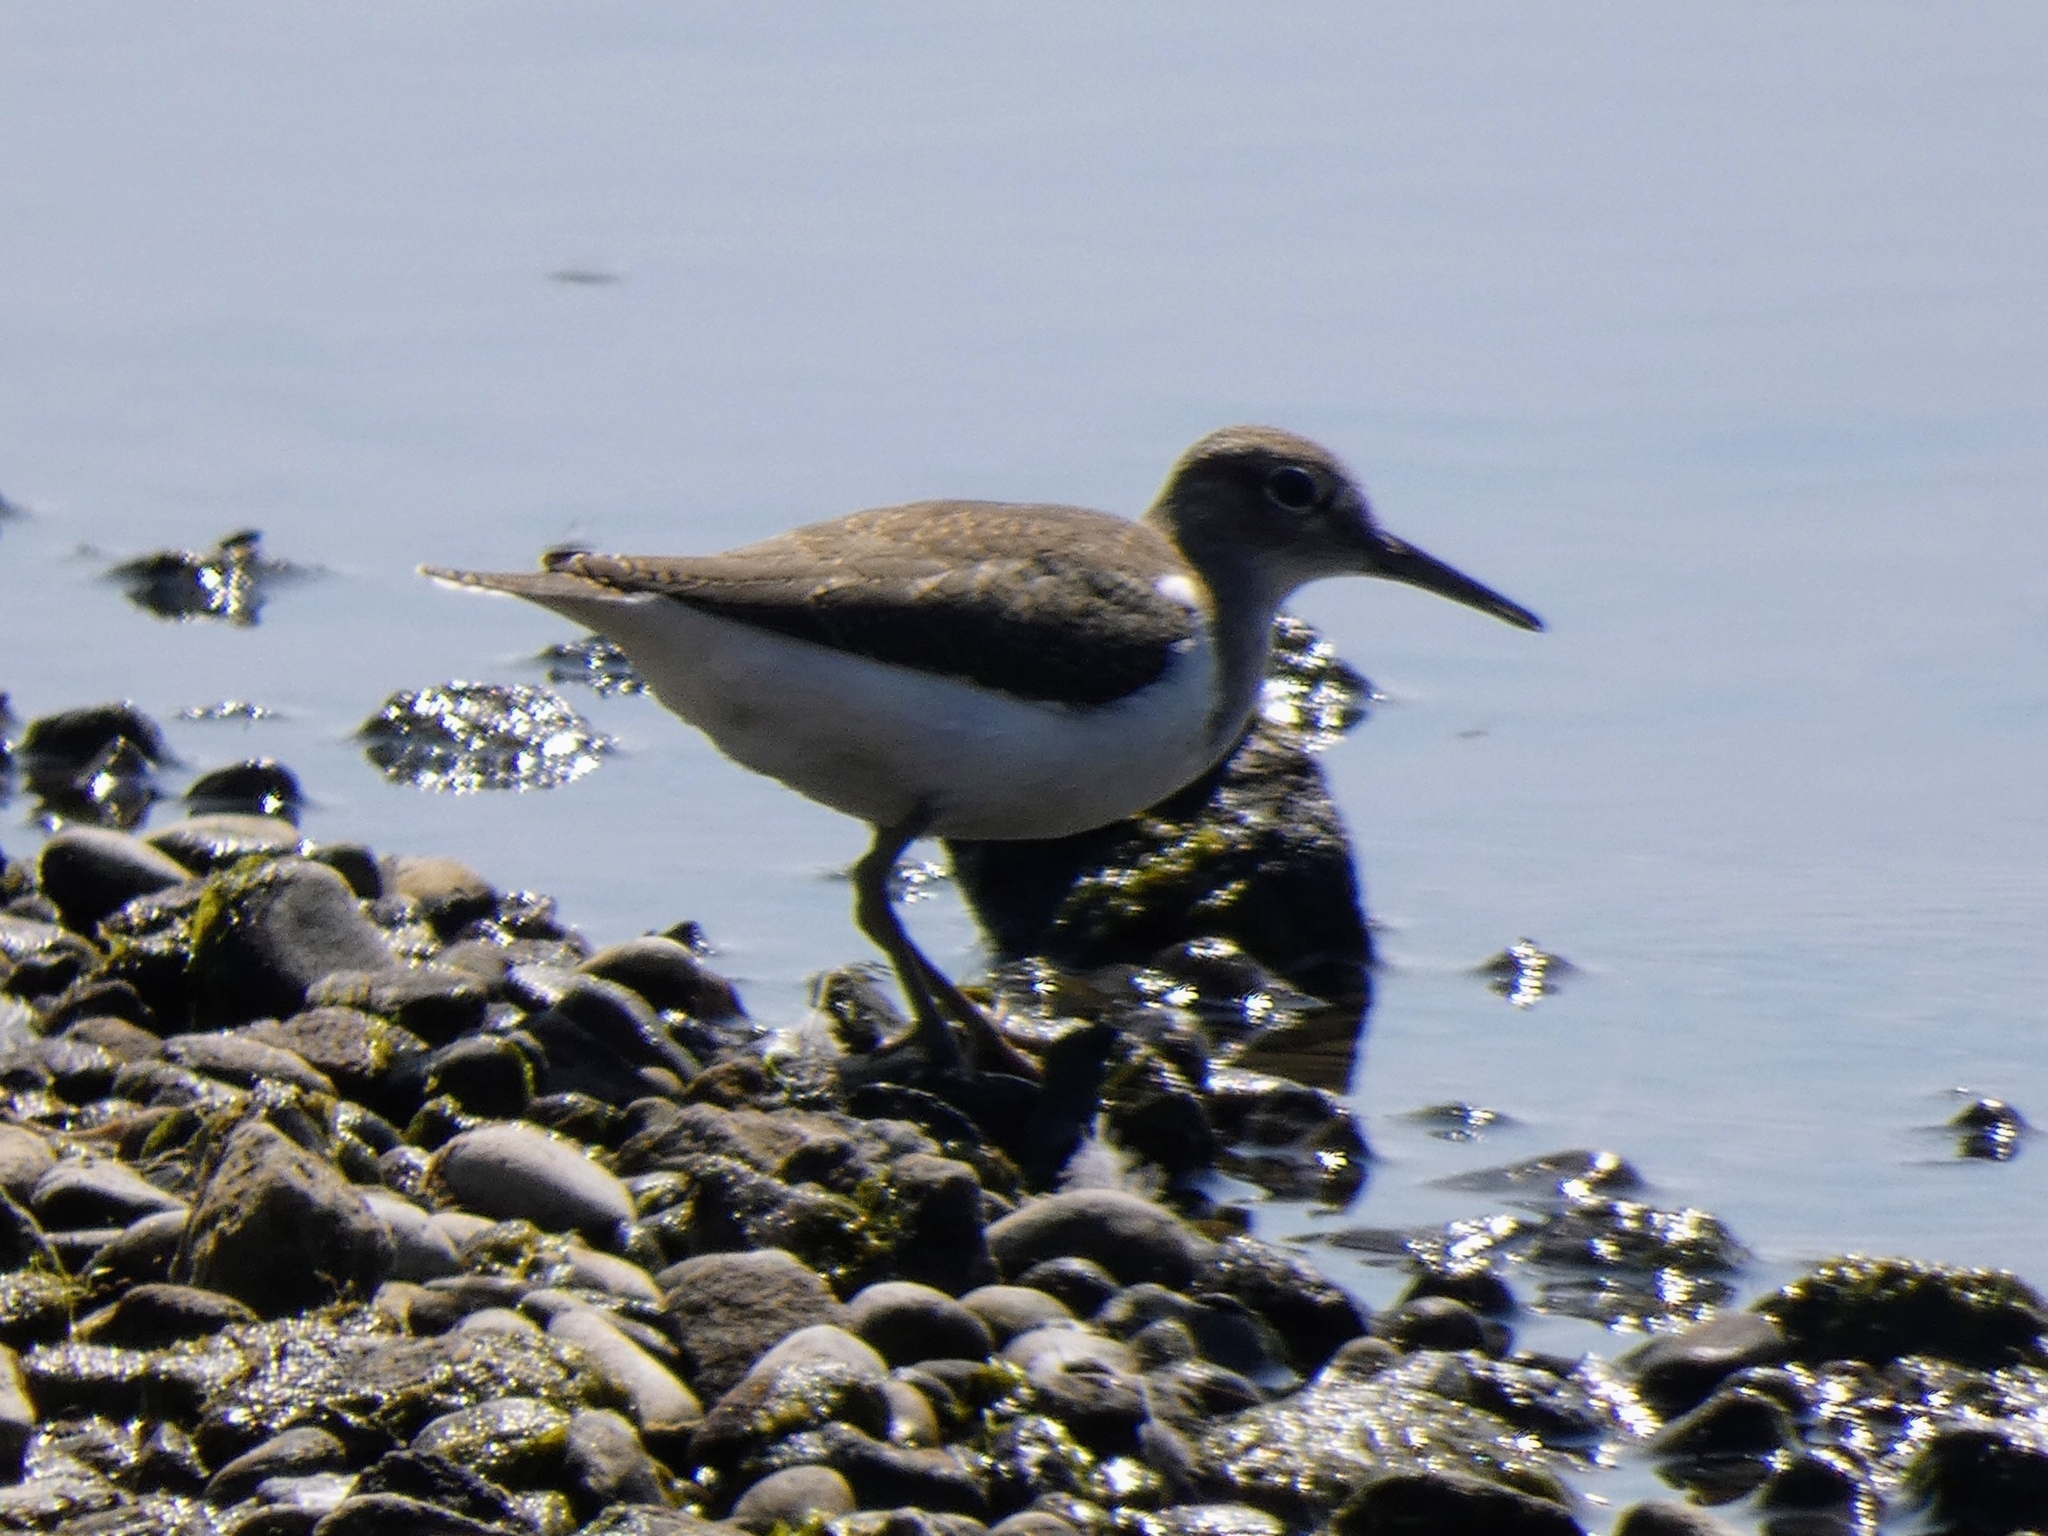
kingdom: Animalia
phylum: Chordata
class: Aves
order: Charadriiformes
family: Scolopacidae
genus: Actitis
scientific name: Actitis hypoleucos
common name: Common sandpiper
